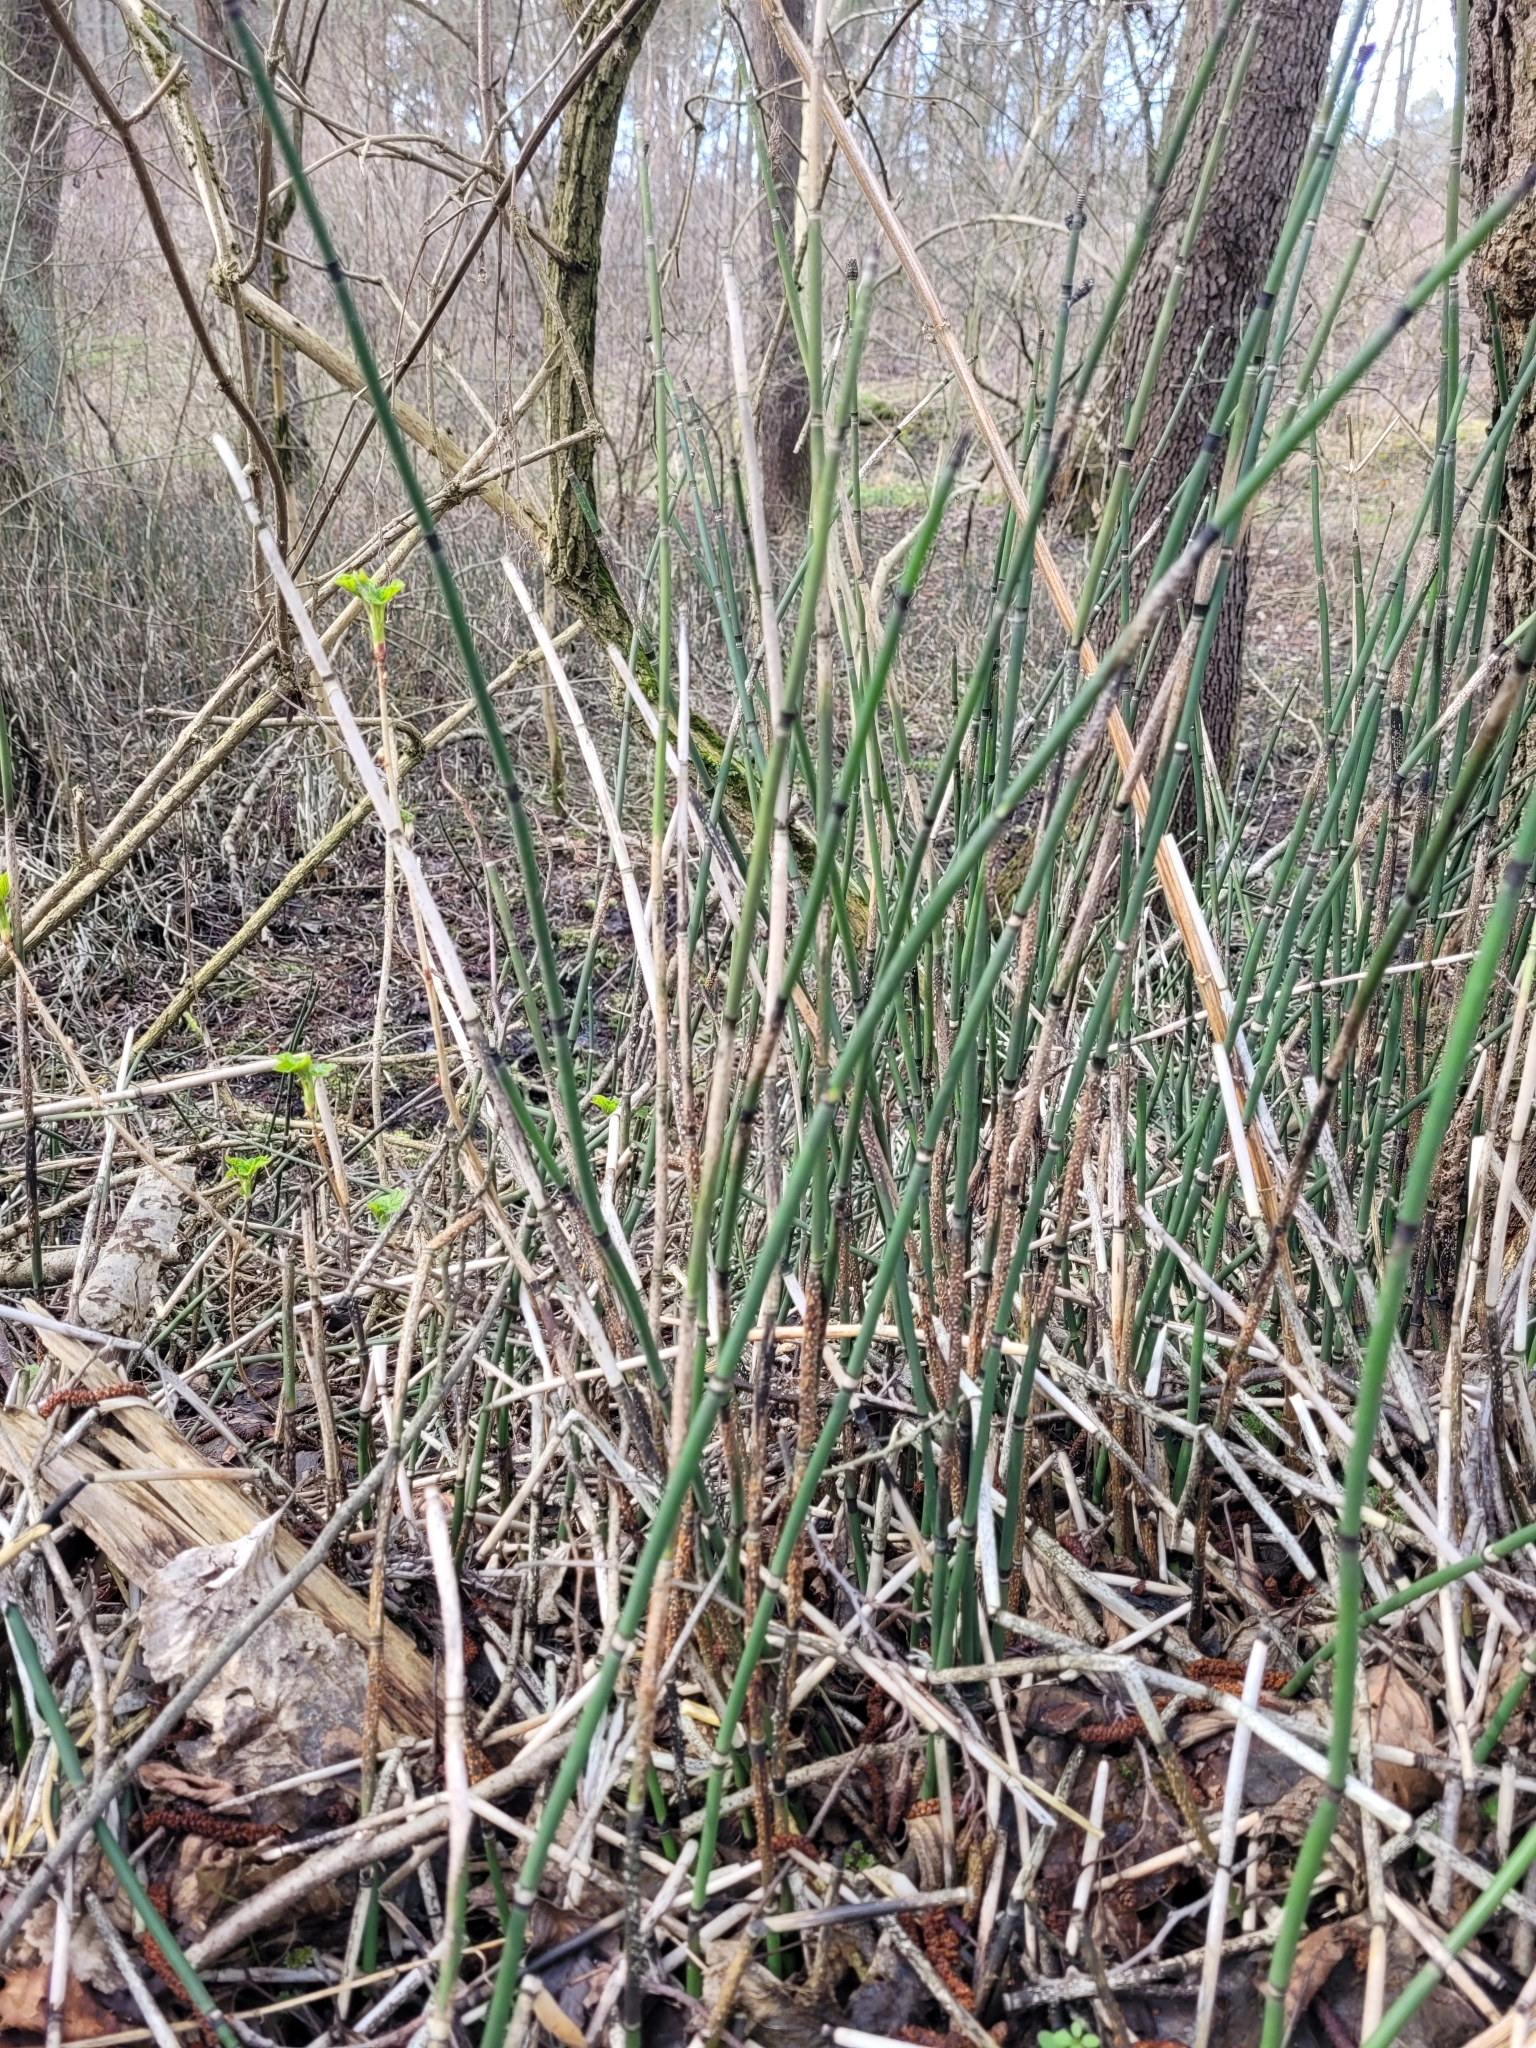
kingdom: Plantae
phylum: Tracheophyta
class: Polypodiopsida
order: Equisetales
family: Equisetaceae
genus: Equisetum
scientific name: Equisetum hyemale
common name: Rough horsetail
